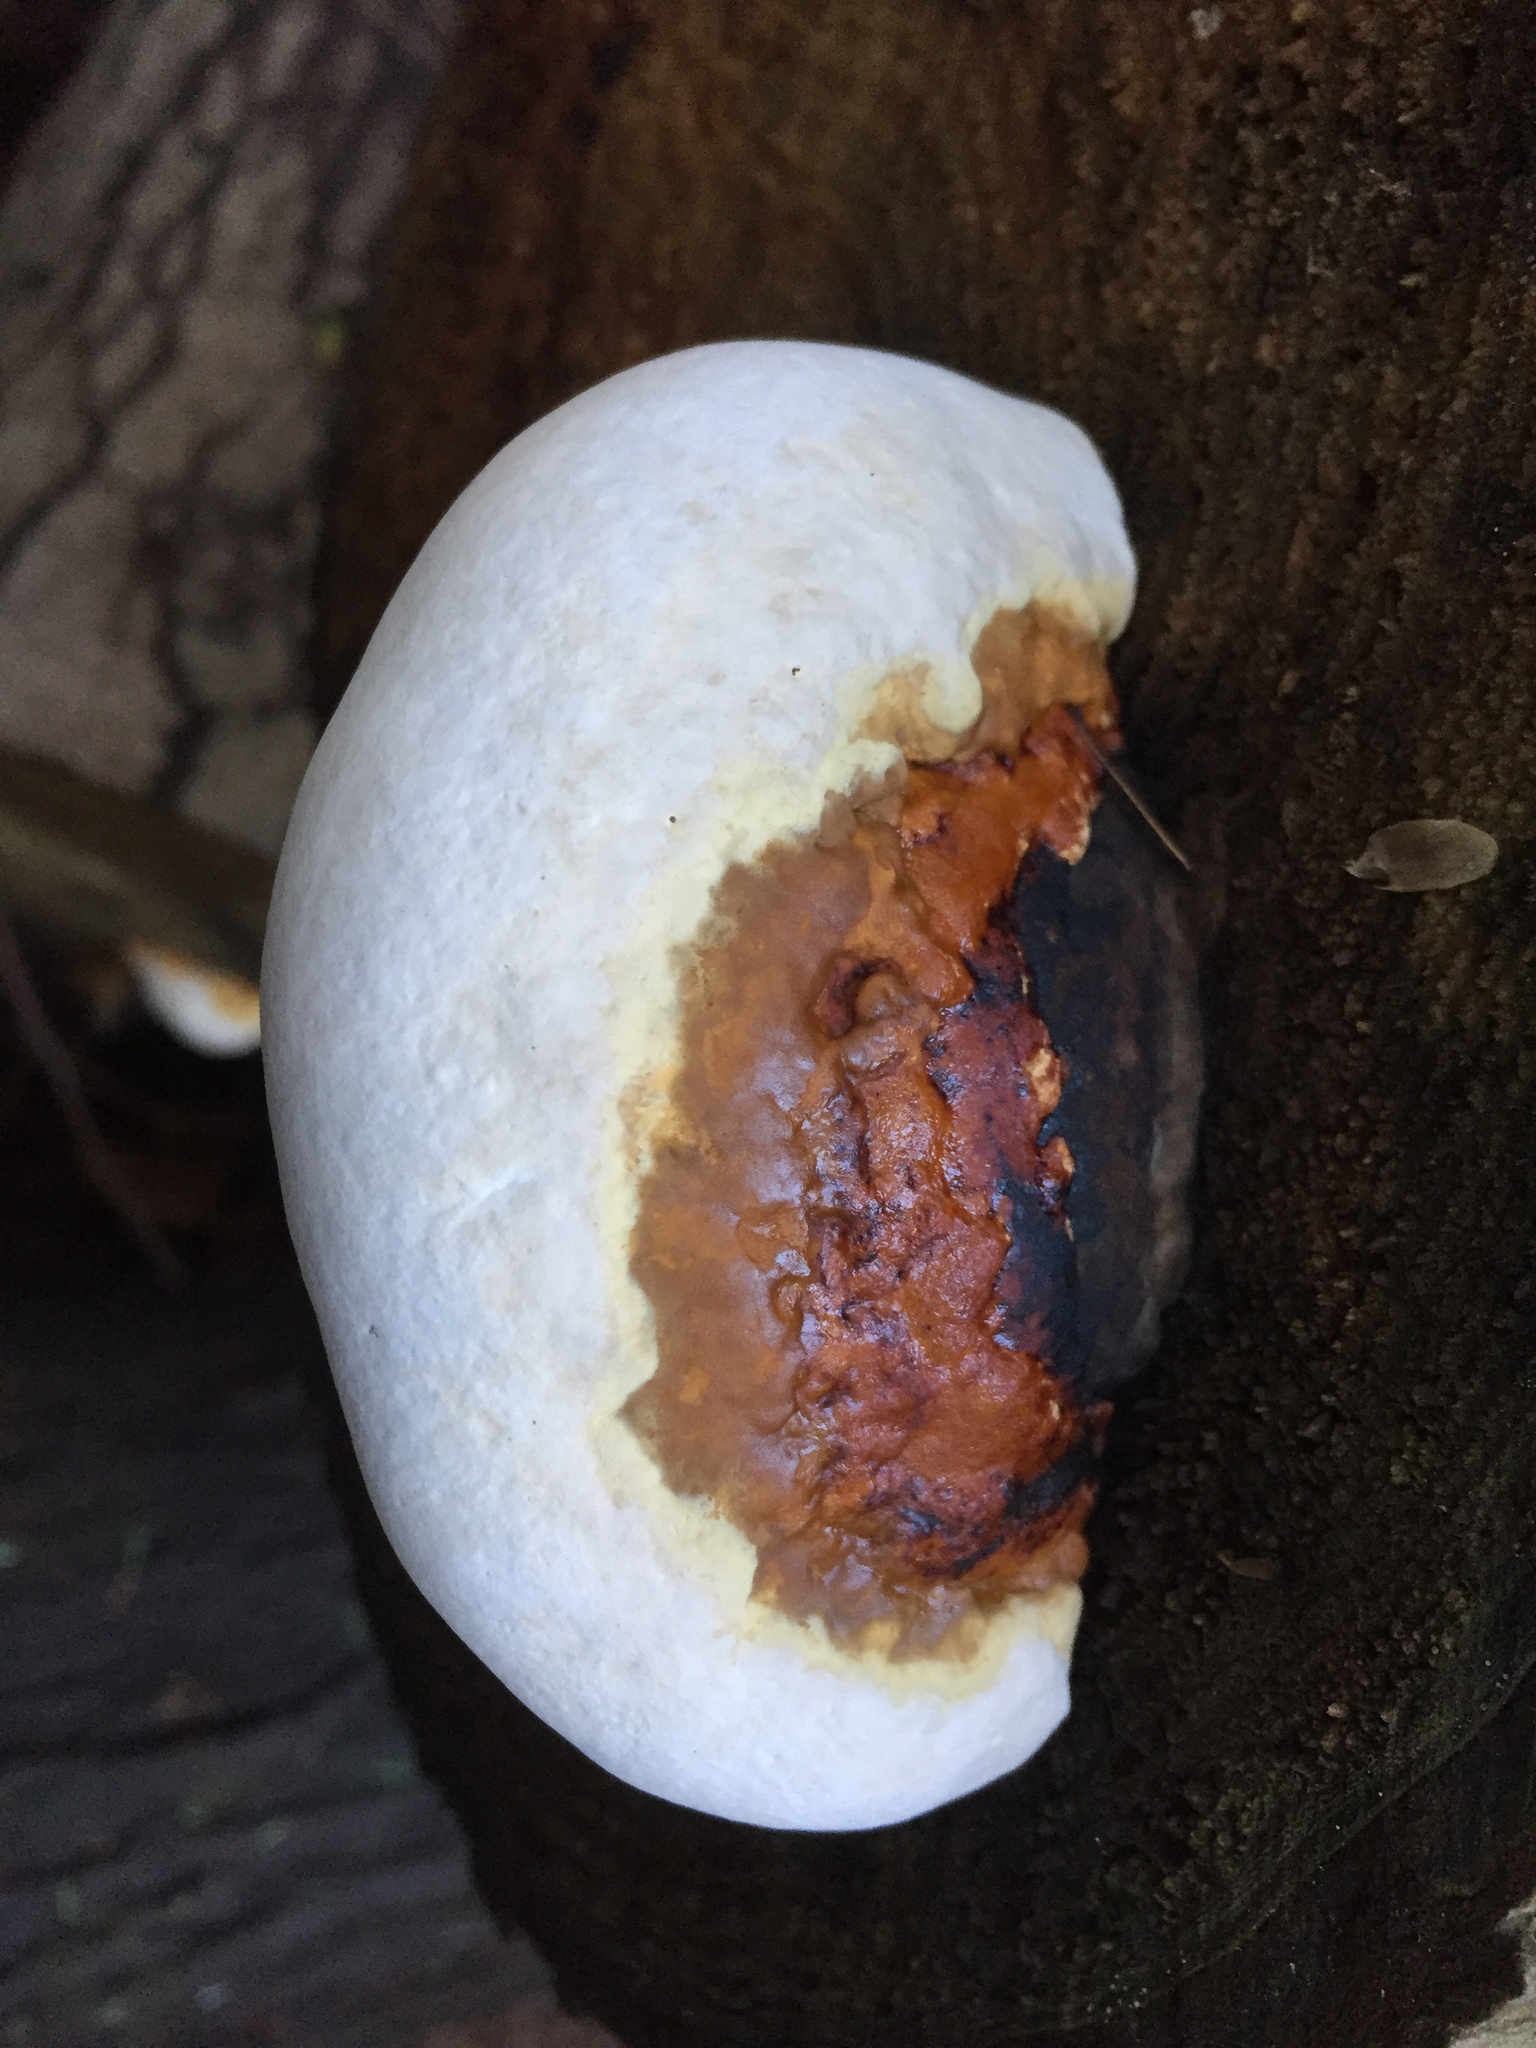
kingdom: Fungi
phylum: Basidiomycota
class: Agaricomycetes
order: Polyporales
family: Fomitopsidaceae
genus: Fomitopsis
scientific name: Fomitopsis mounceae
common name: Northern red belt
